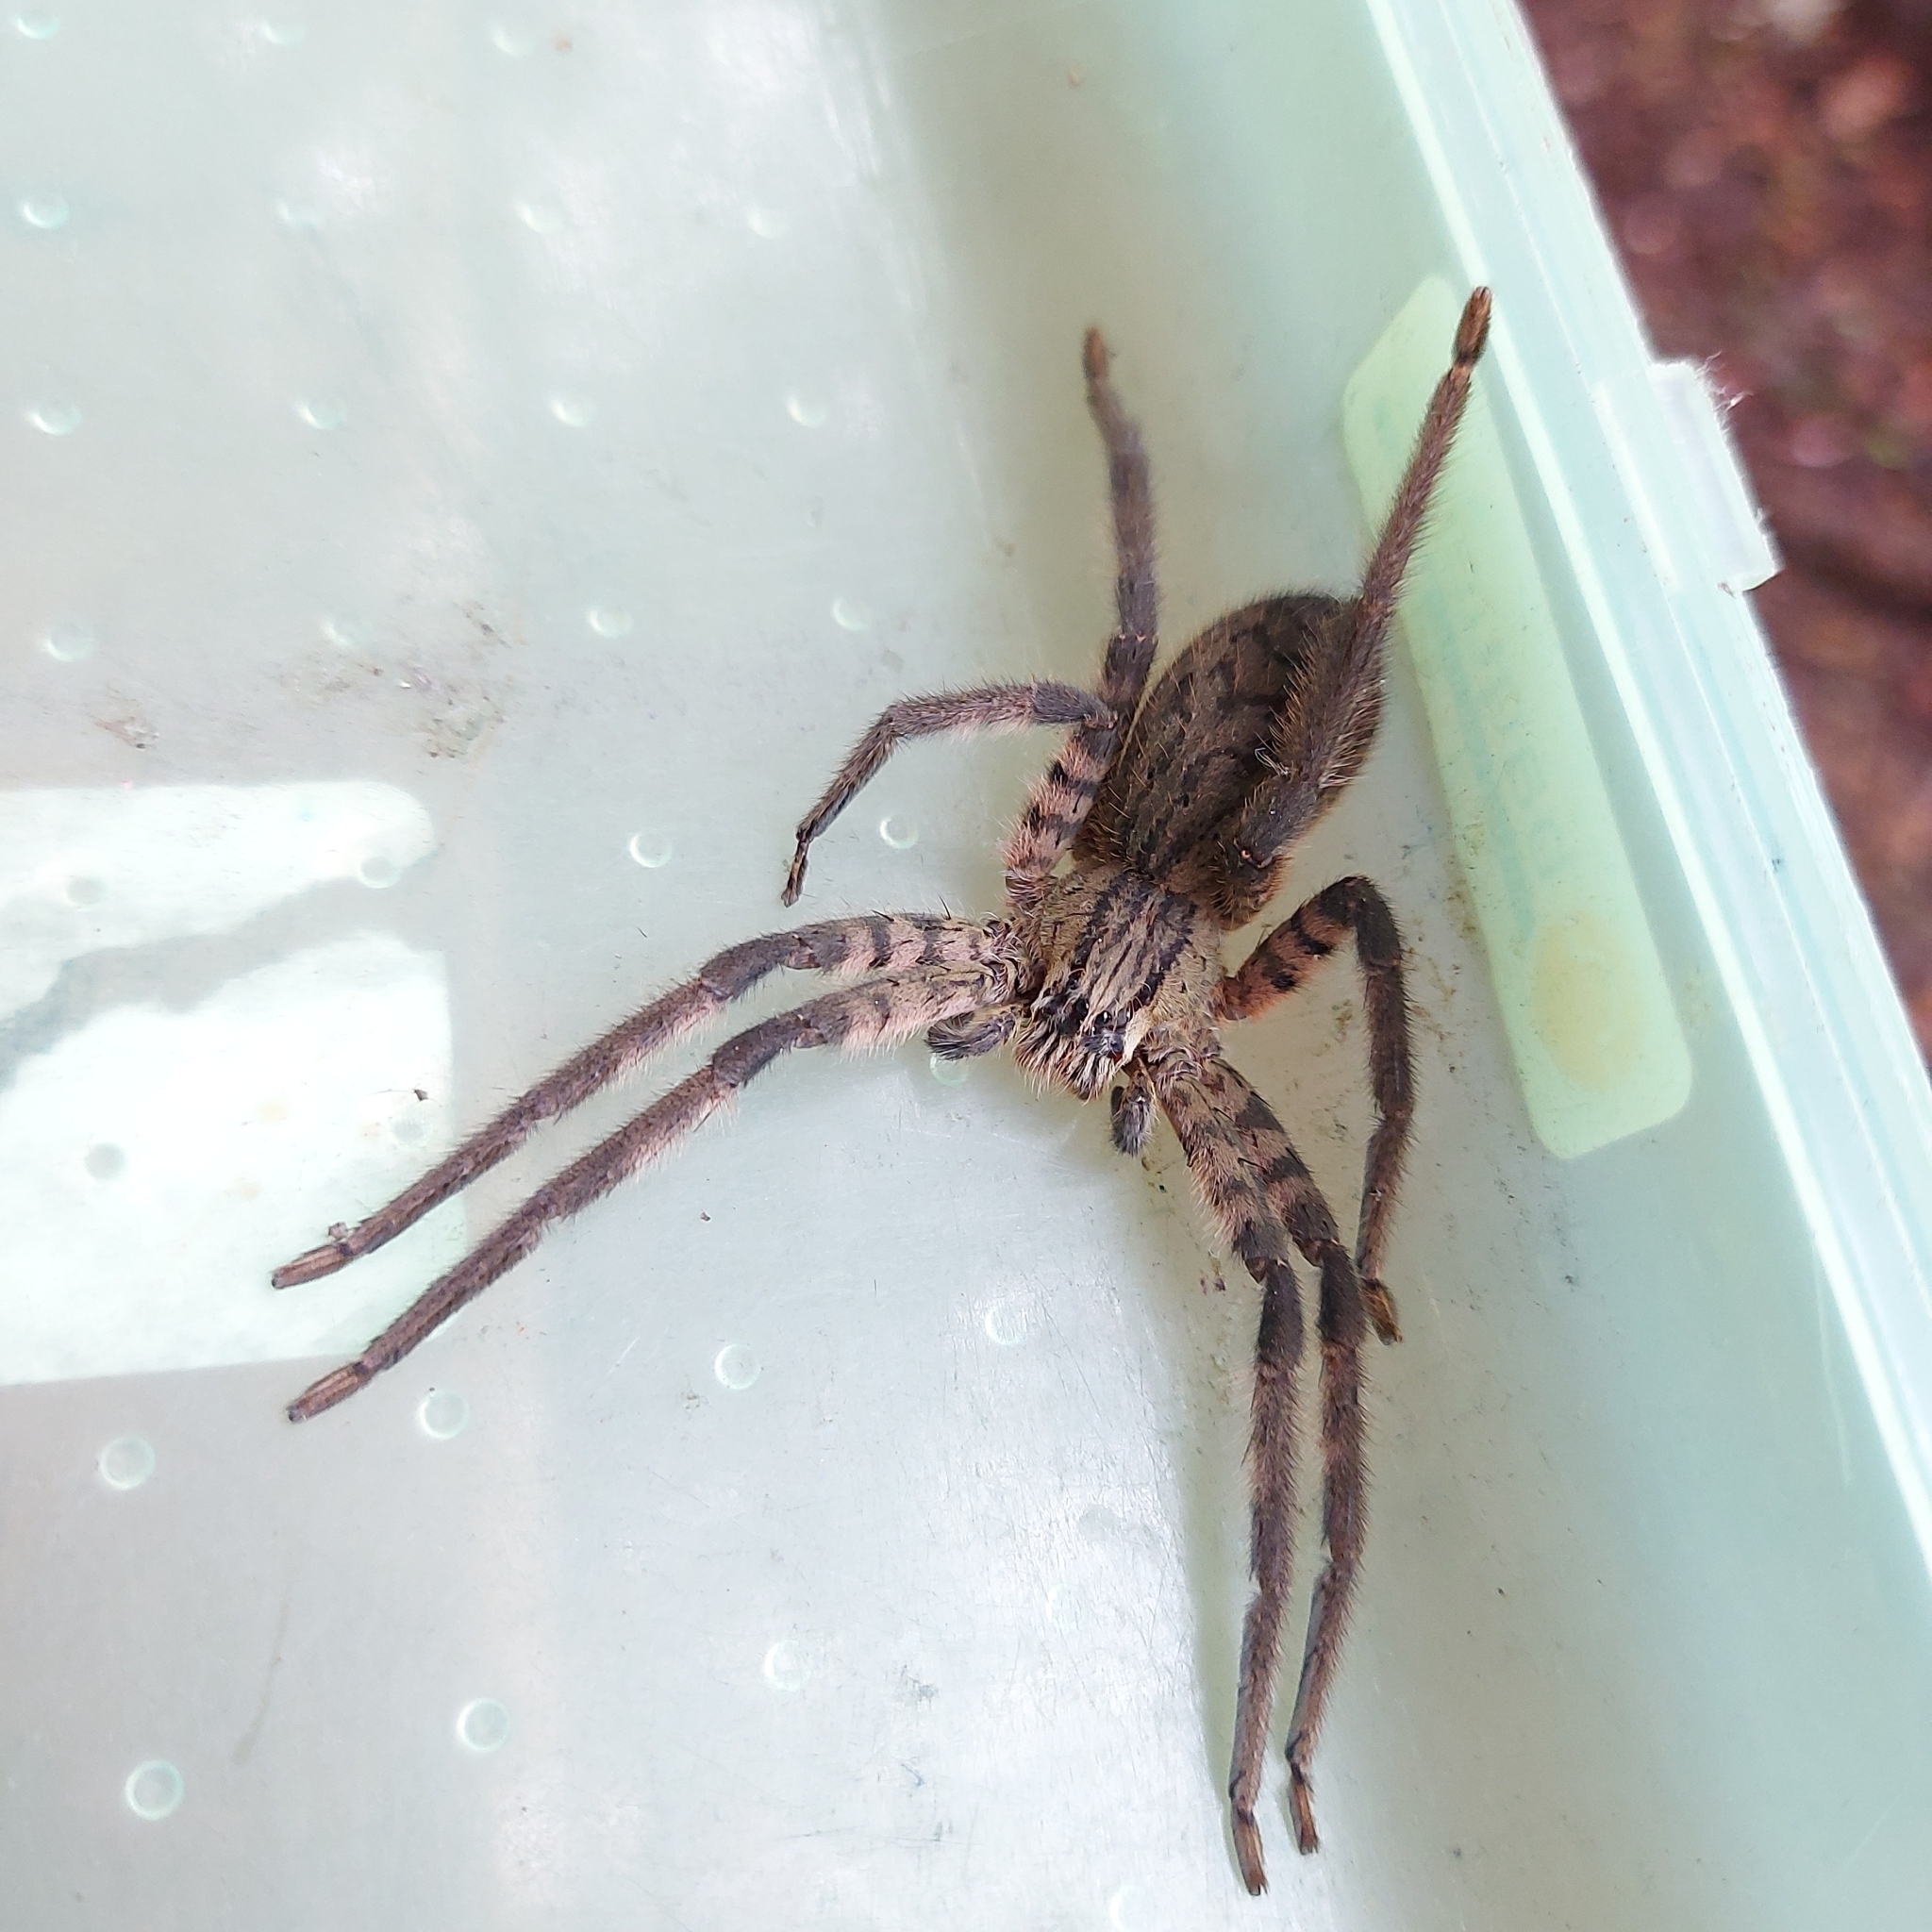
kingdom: Animalia
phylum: Arthropoda
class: Arachnida
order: Araneae
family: Trechaleidae
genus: Cupiennius
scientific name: Cupiennius salei
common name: Wandering spiders
